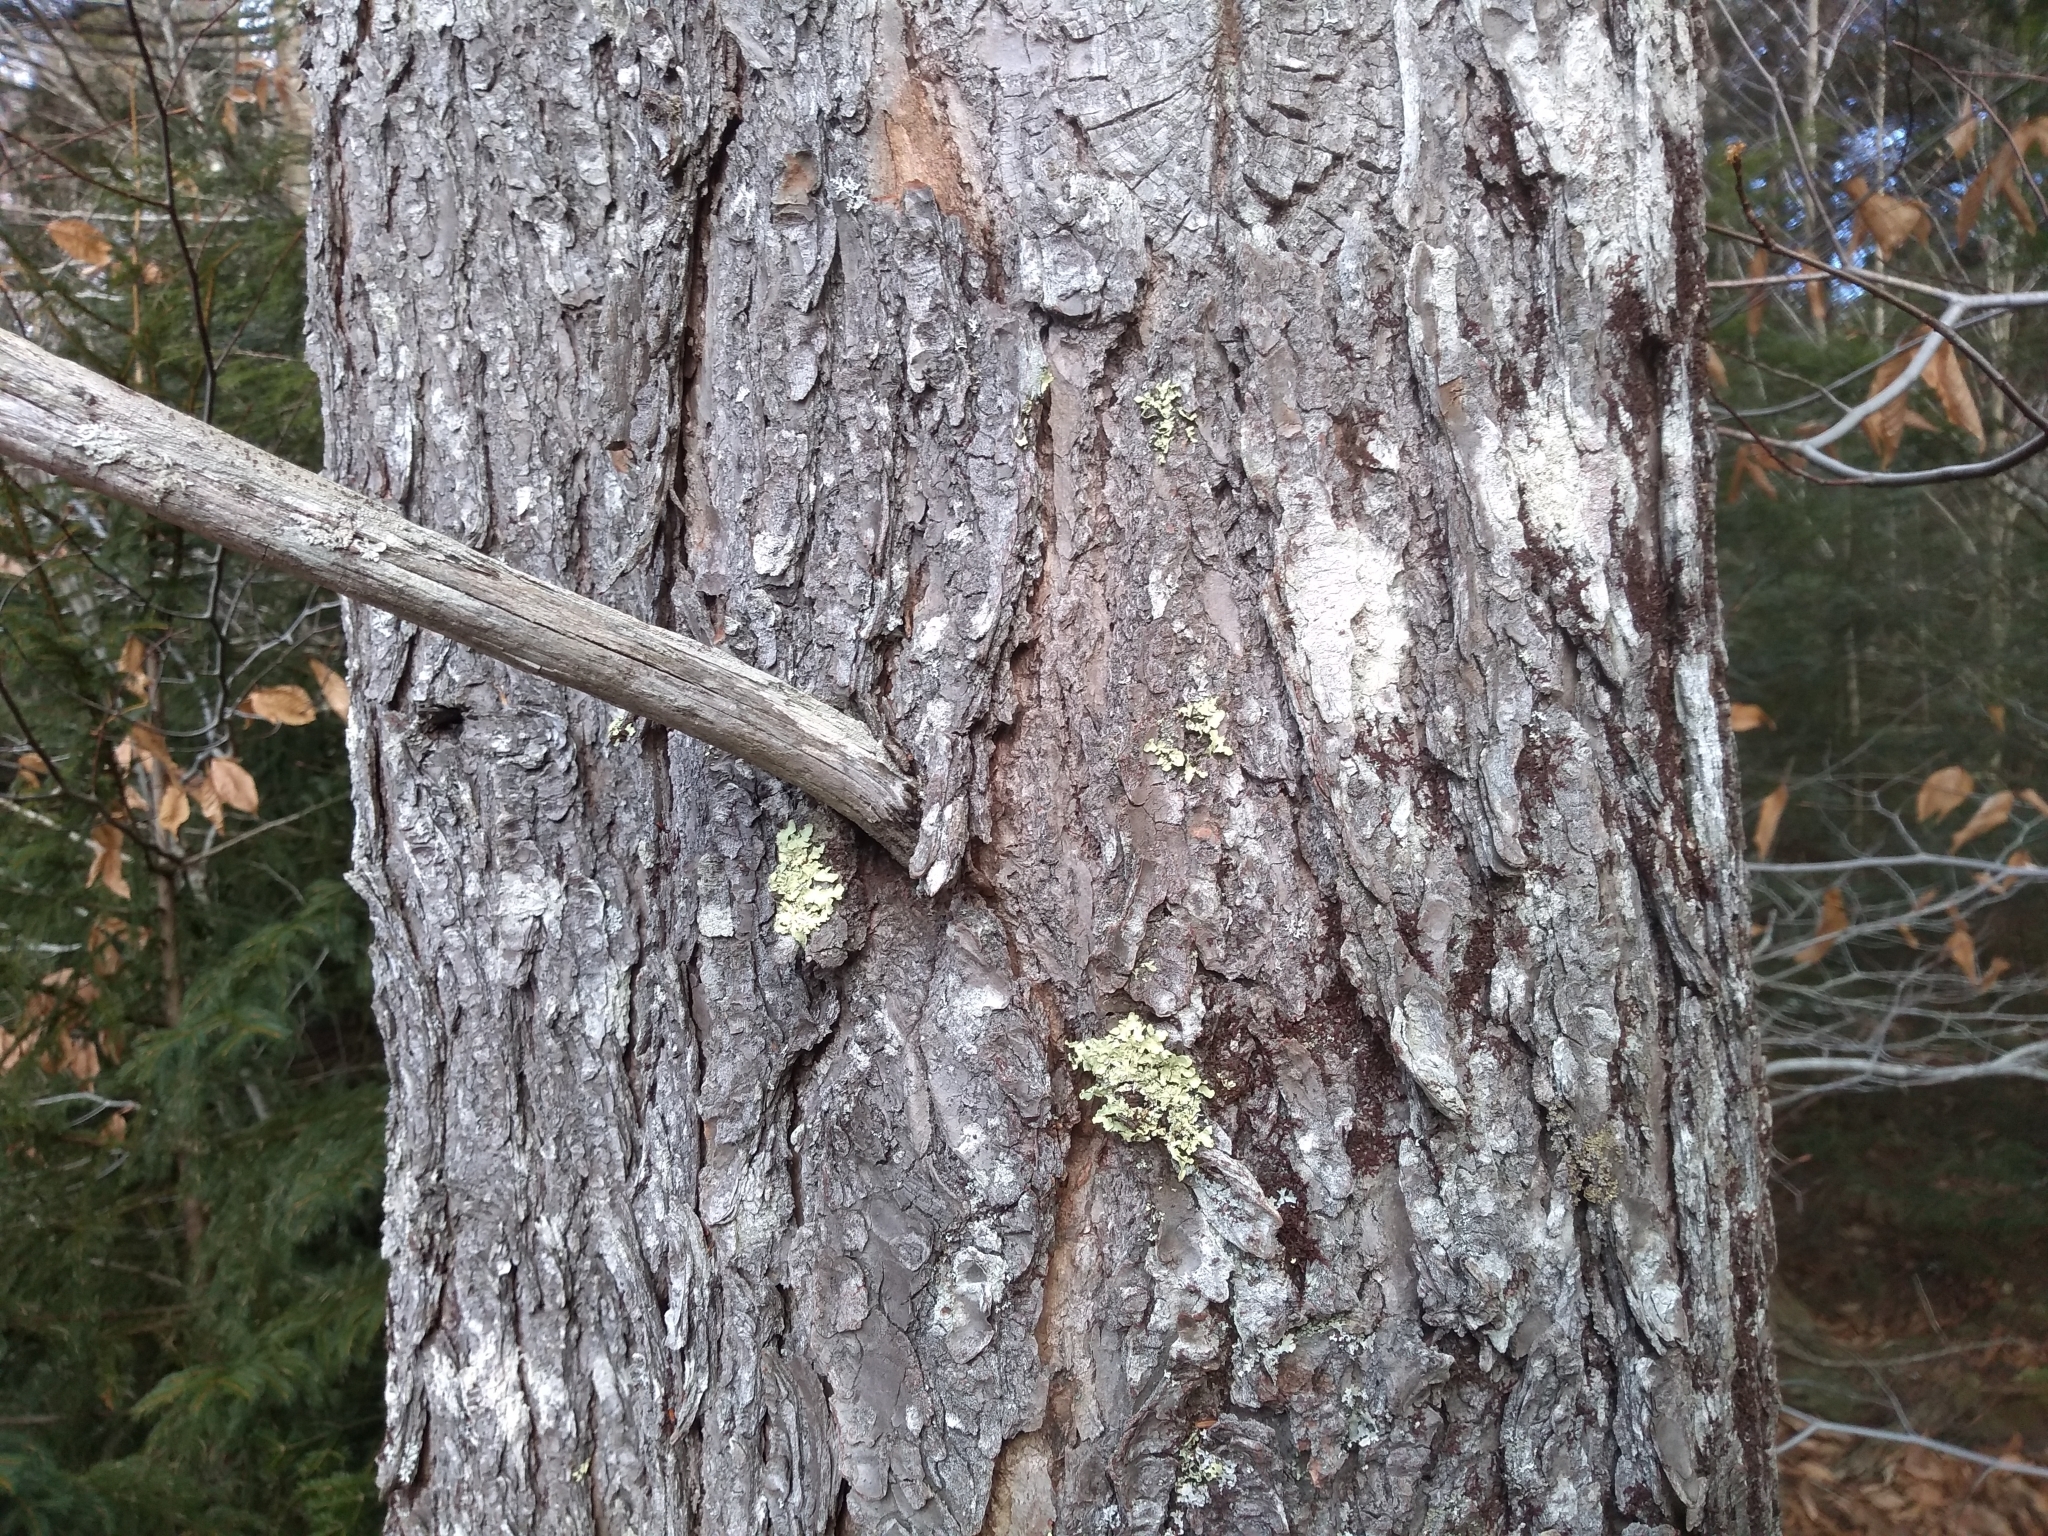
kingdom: Fungi
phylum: Ascomycota
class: Lecanoromycetes
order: Lecanorales
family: Parmeliaceae
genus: Usnocetraria
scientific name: Usnocetraria oakesiana
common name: Yellow ribbon lichen
